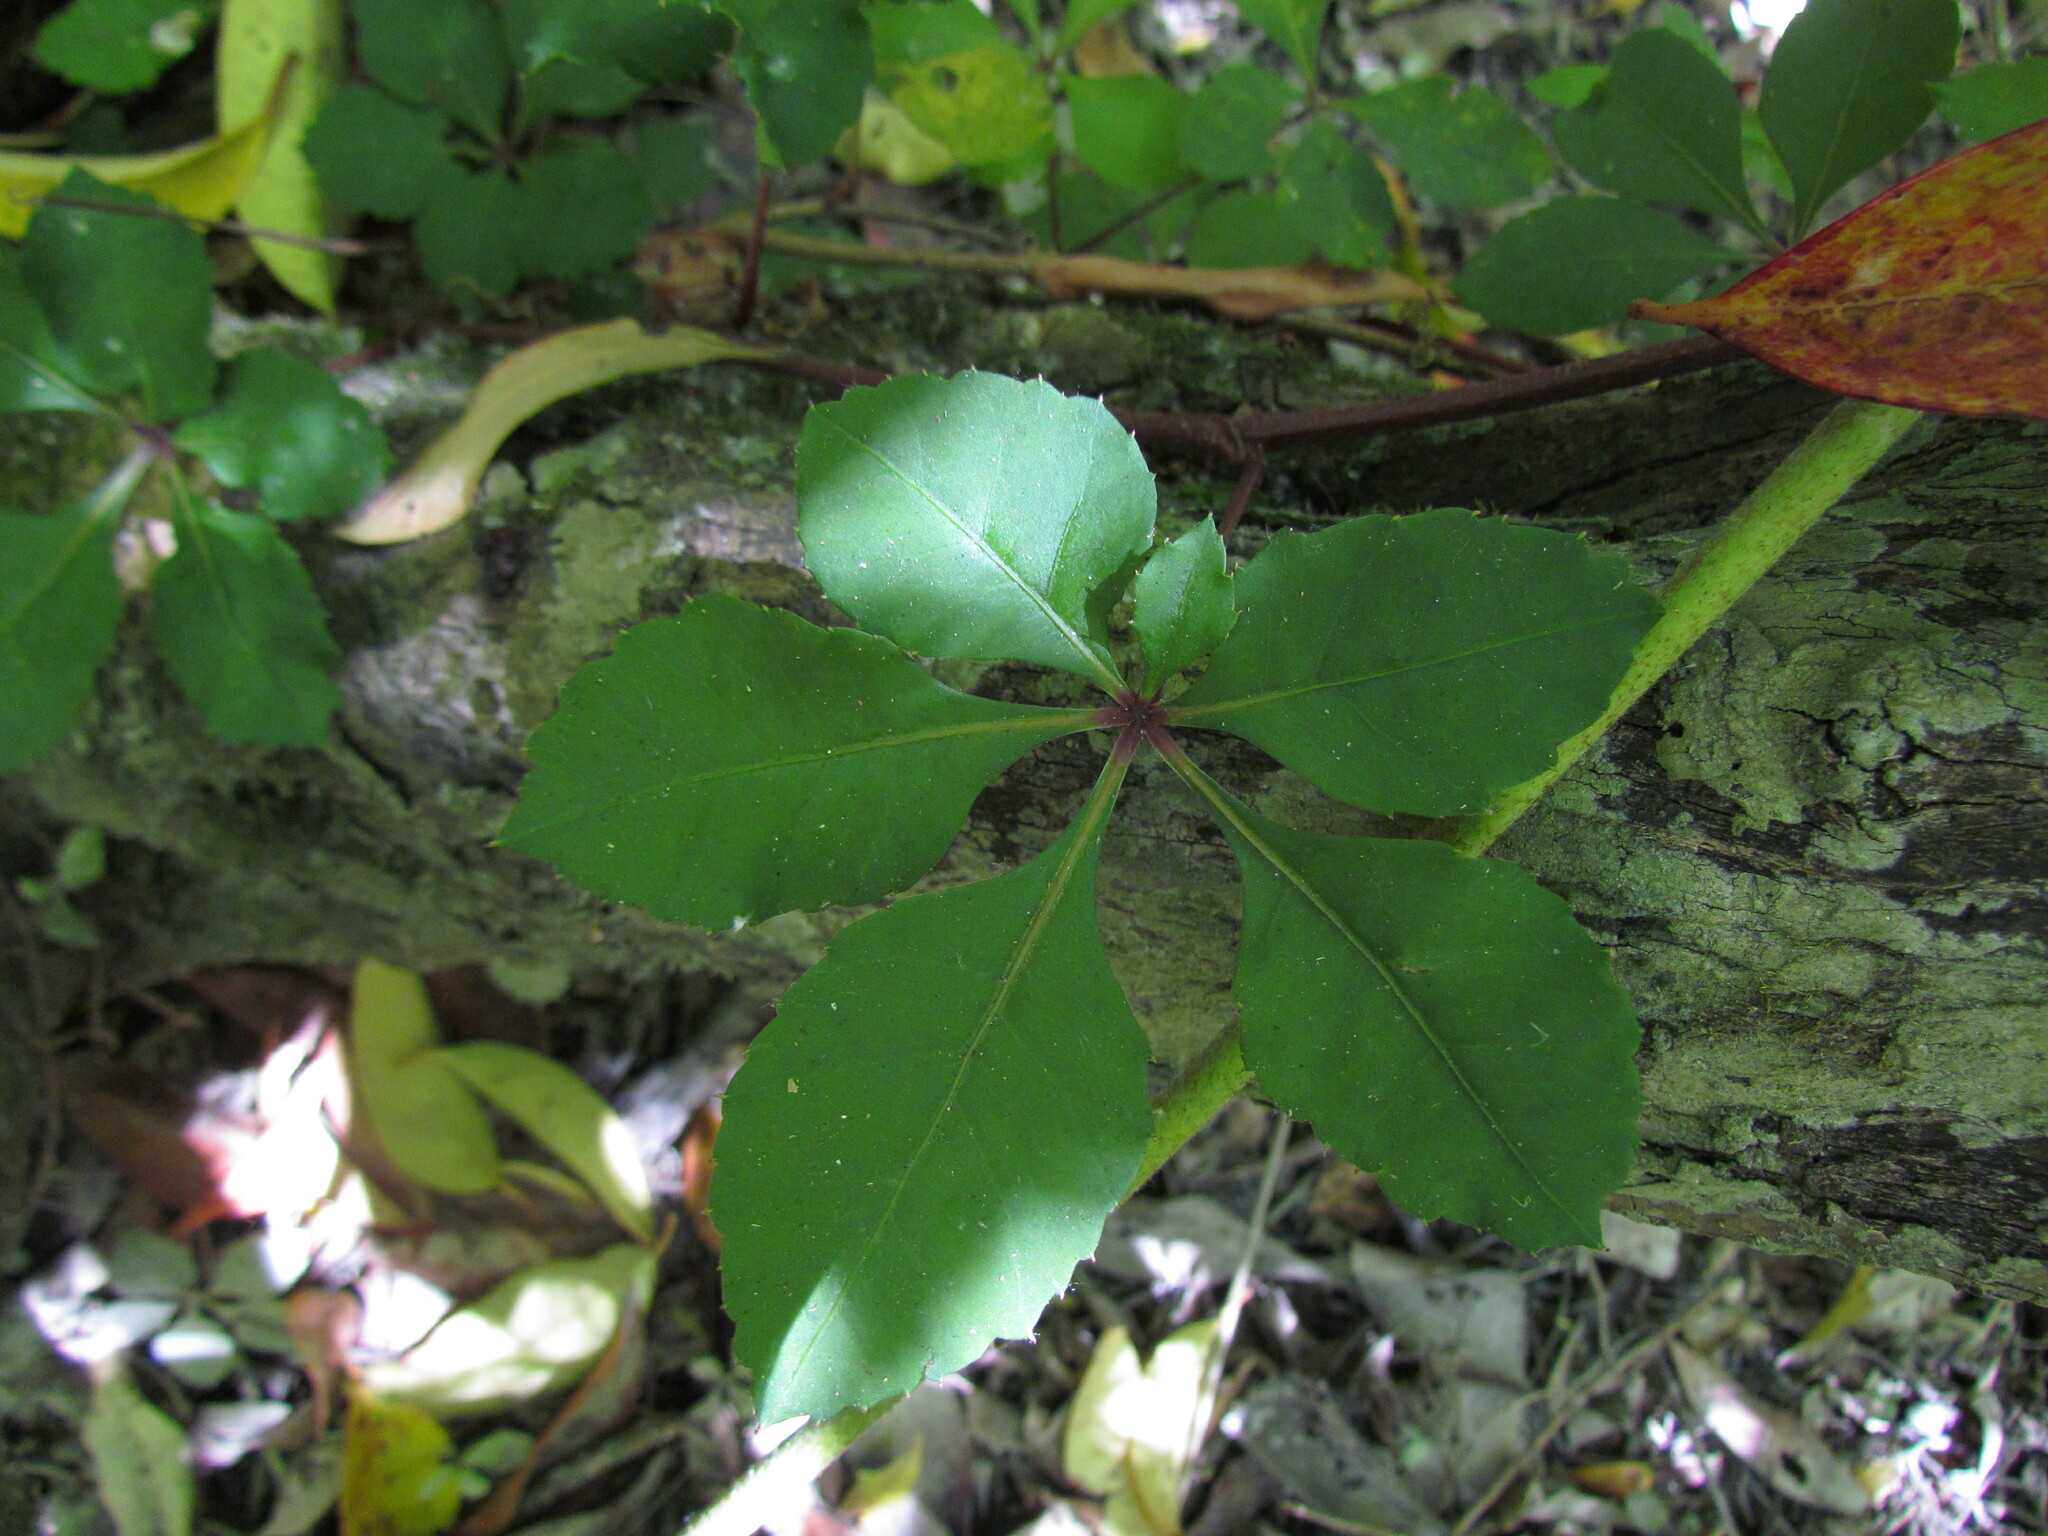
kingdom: Plantae
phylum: Tracheophyta
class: Magnoliopsida
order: Vitales
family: Vitaceae
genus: Clematicissus
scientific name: Clematicissus striata
